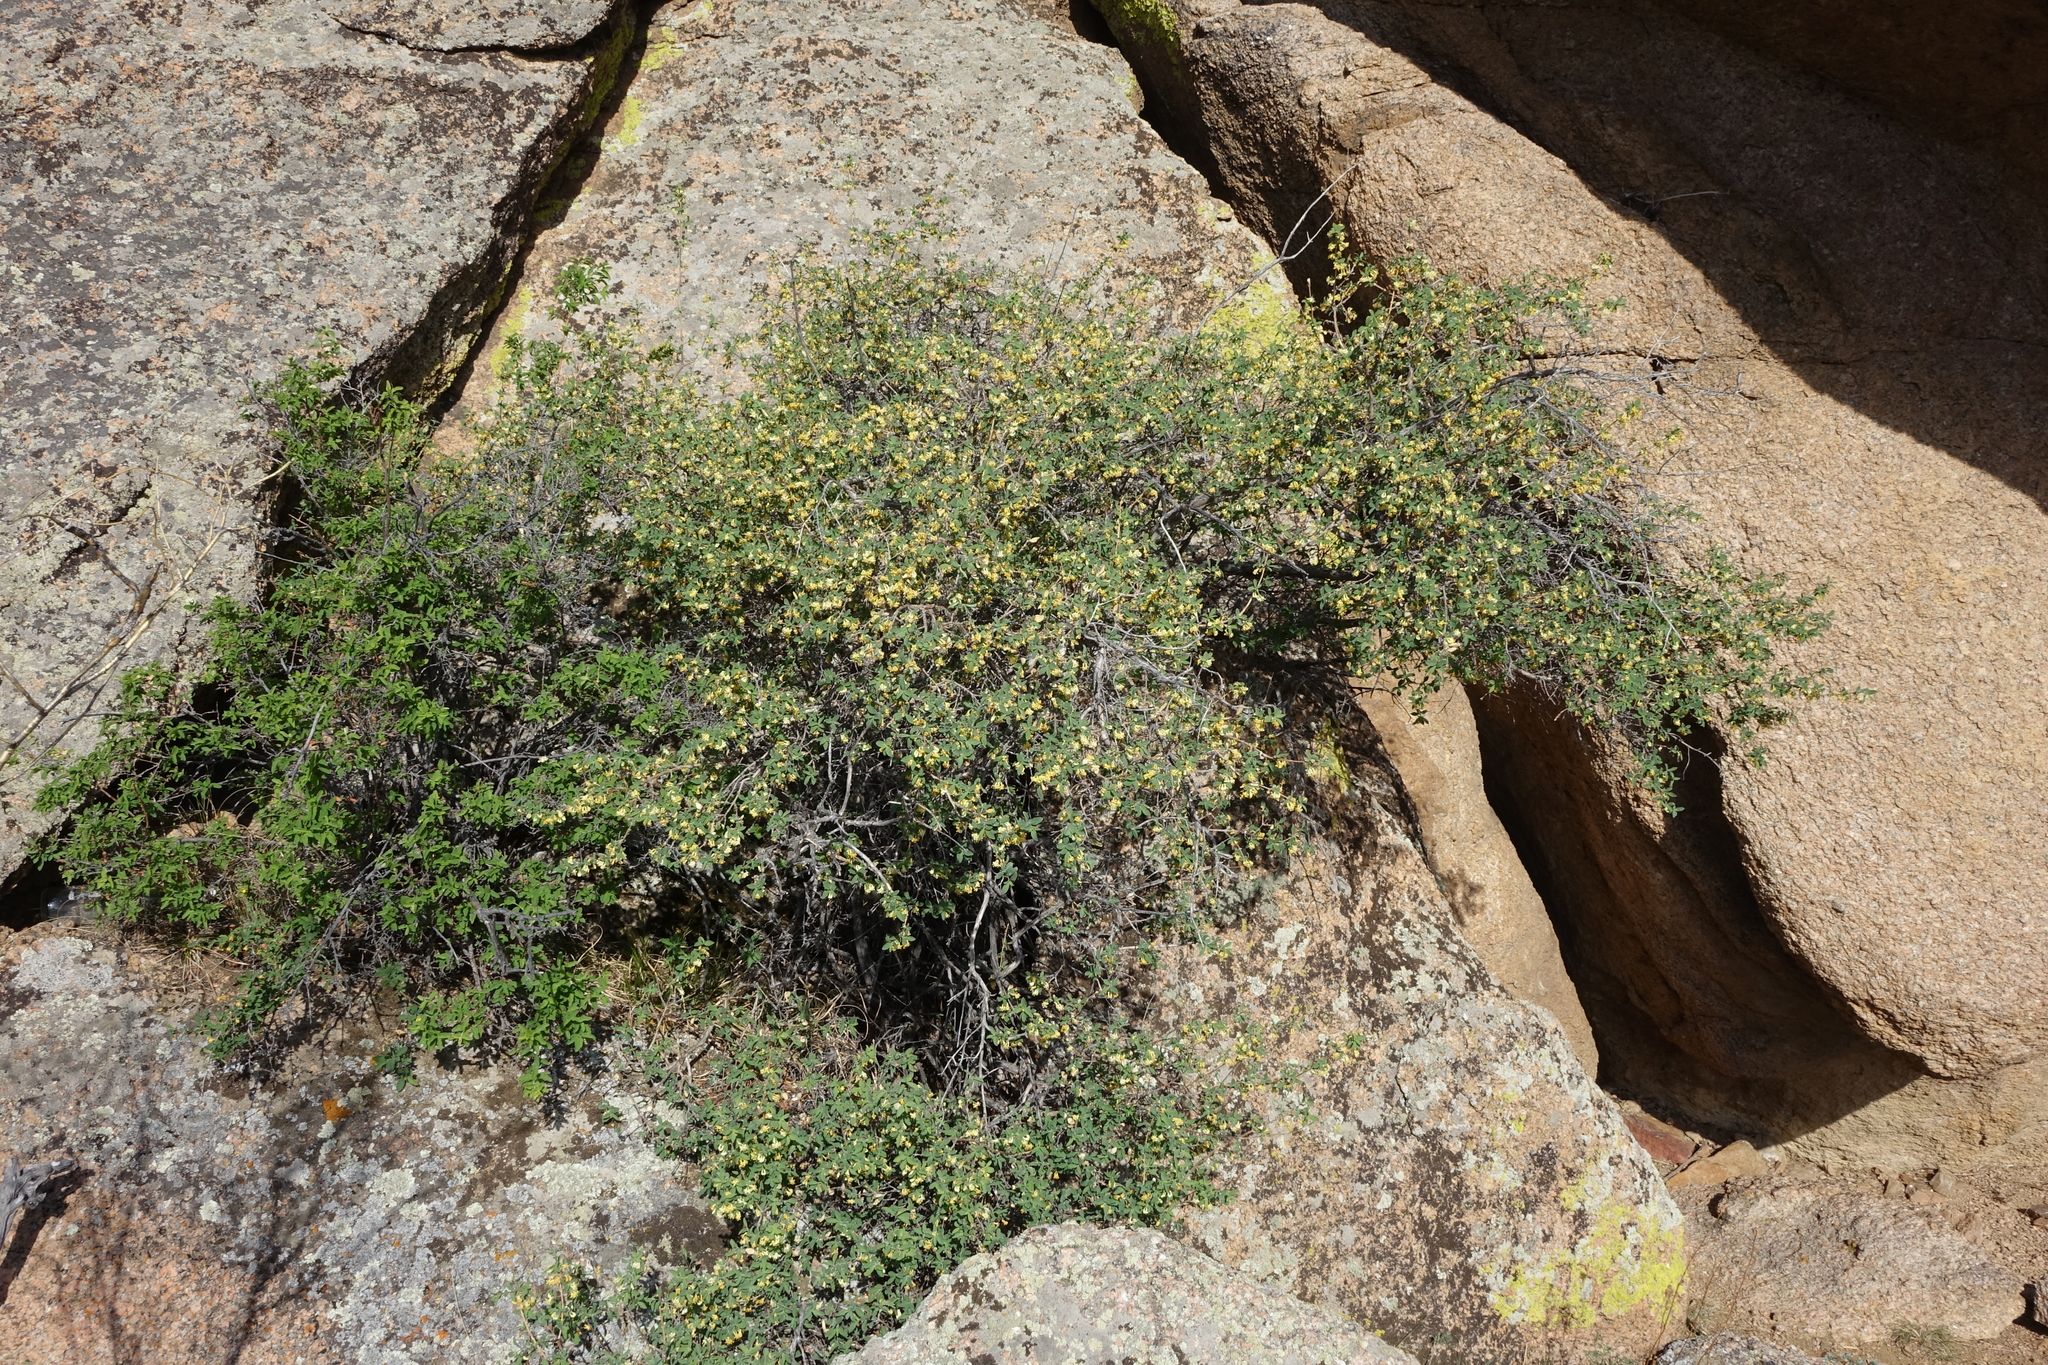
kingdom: Plantae
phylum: Tracheophyta
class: Magnoliopsida
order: Dipsacales
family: Caprifoliaceae
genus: Lonicera
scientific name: Lonicera microphylla
